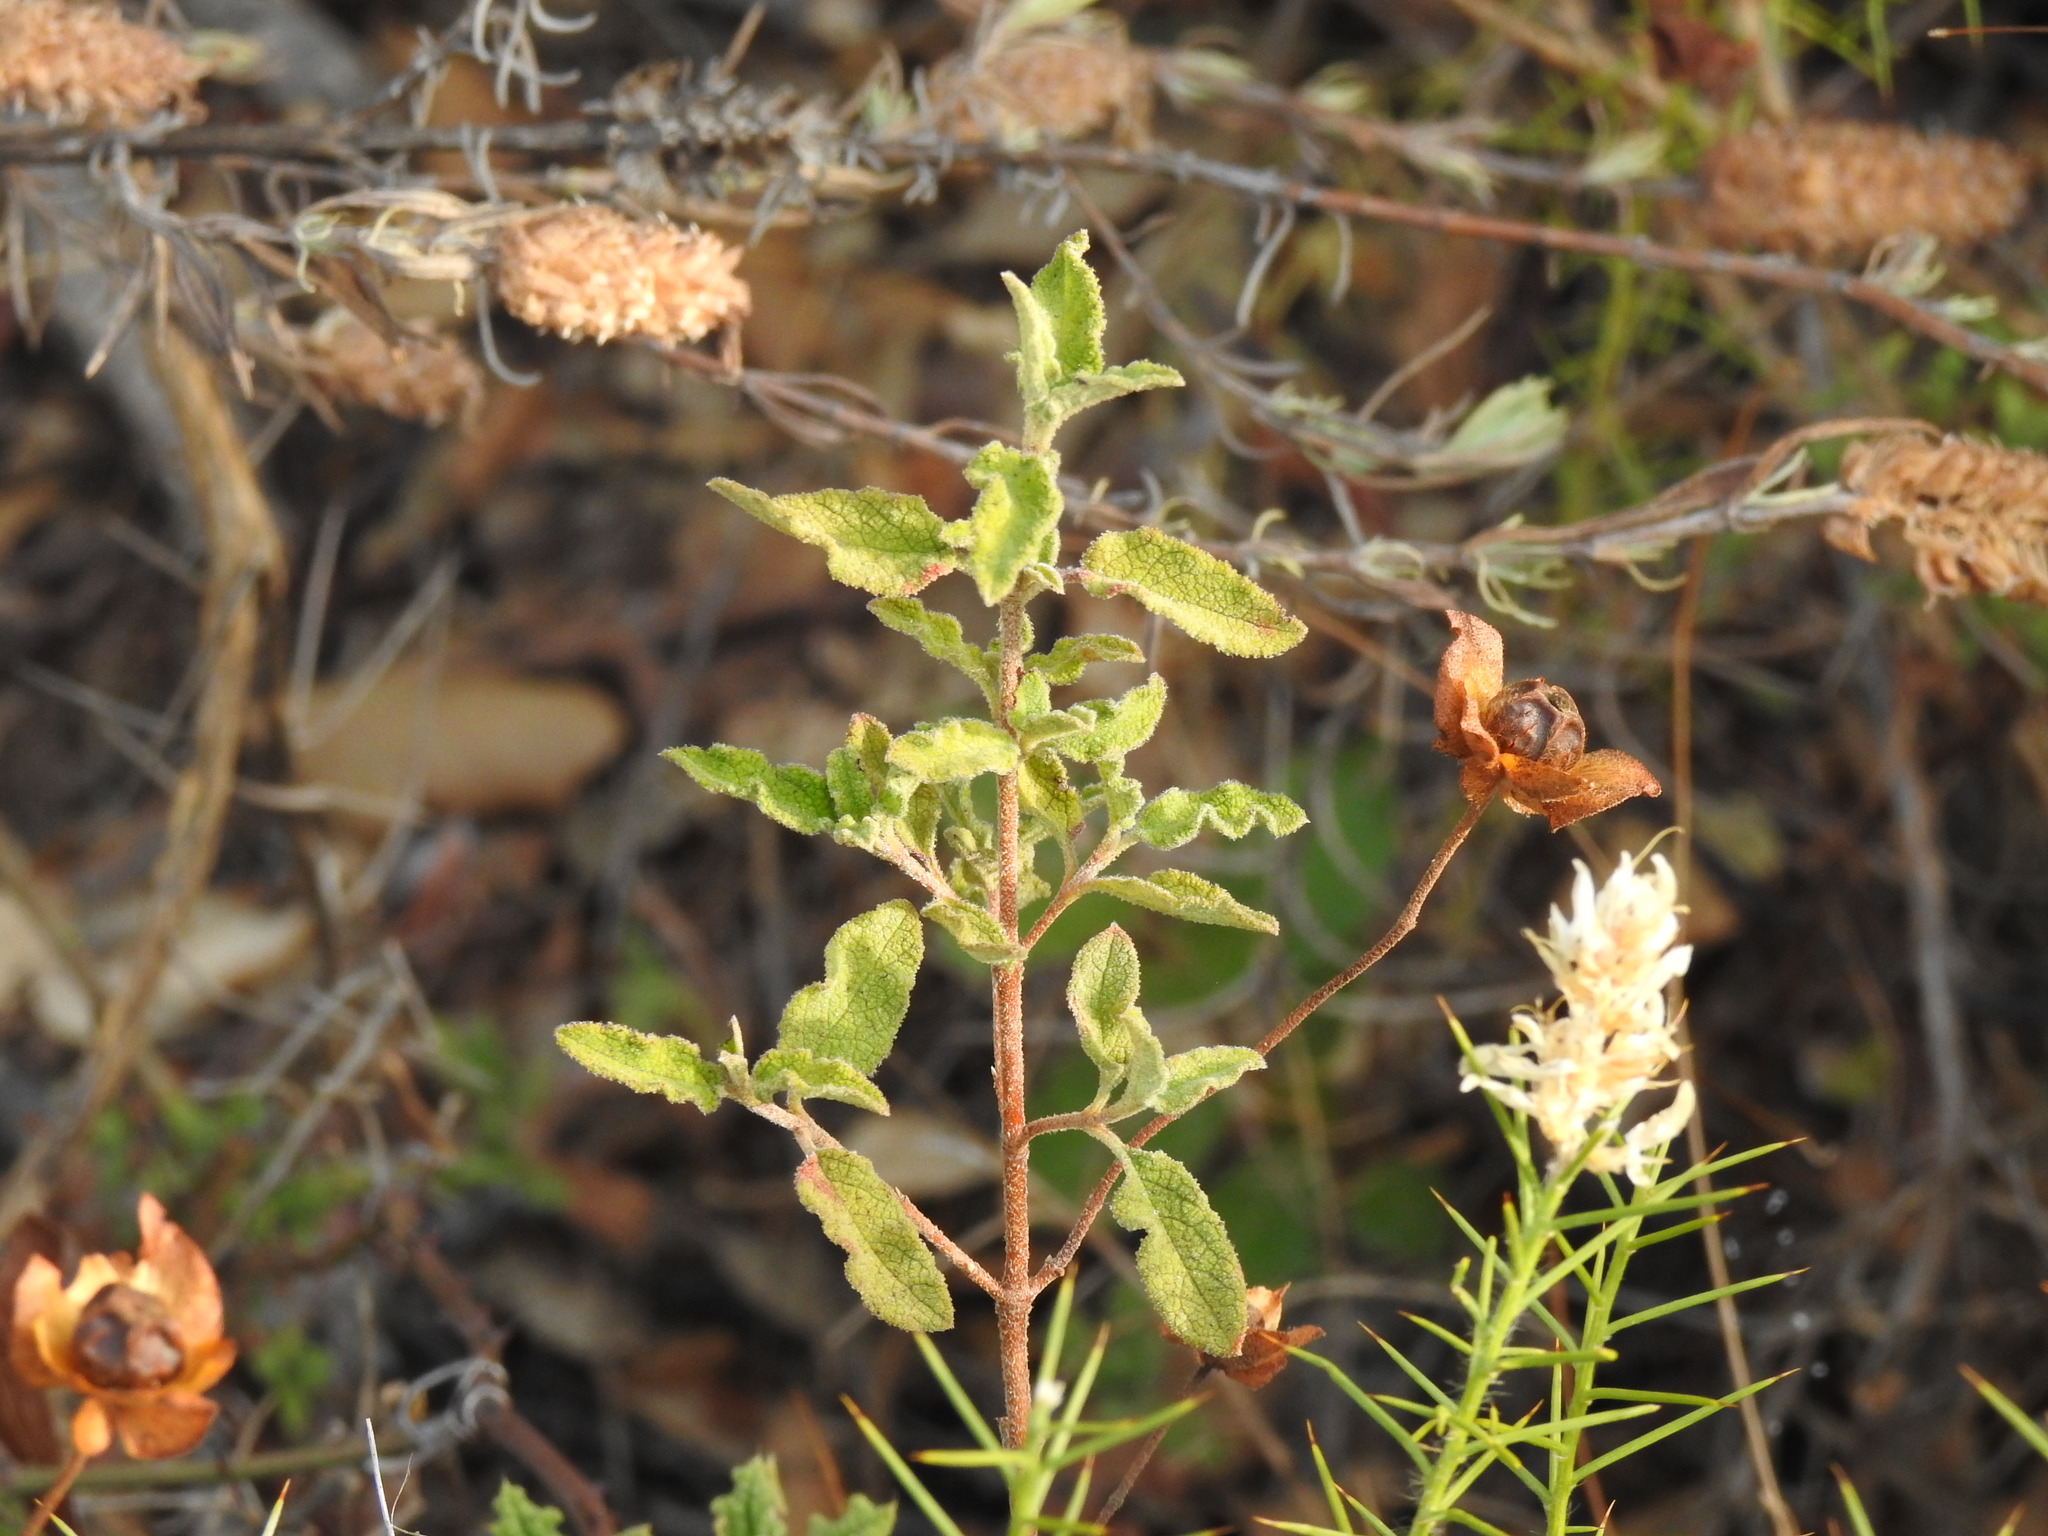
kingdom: Plantae
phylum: Tracheophyta
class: Magnoliopsida
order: Malvales
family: Cistaceae
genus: Cistus
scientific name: Cistus salviifolius
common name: Salvia cistus
